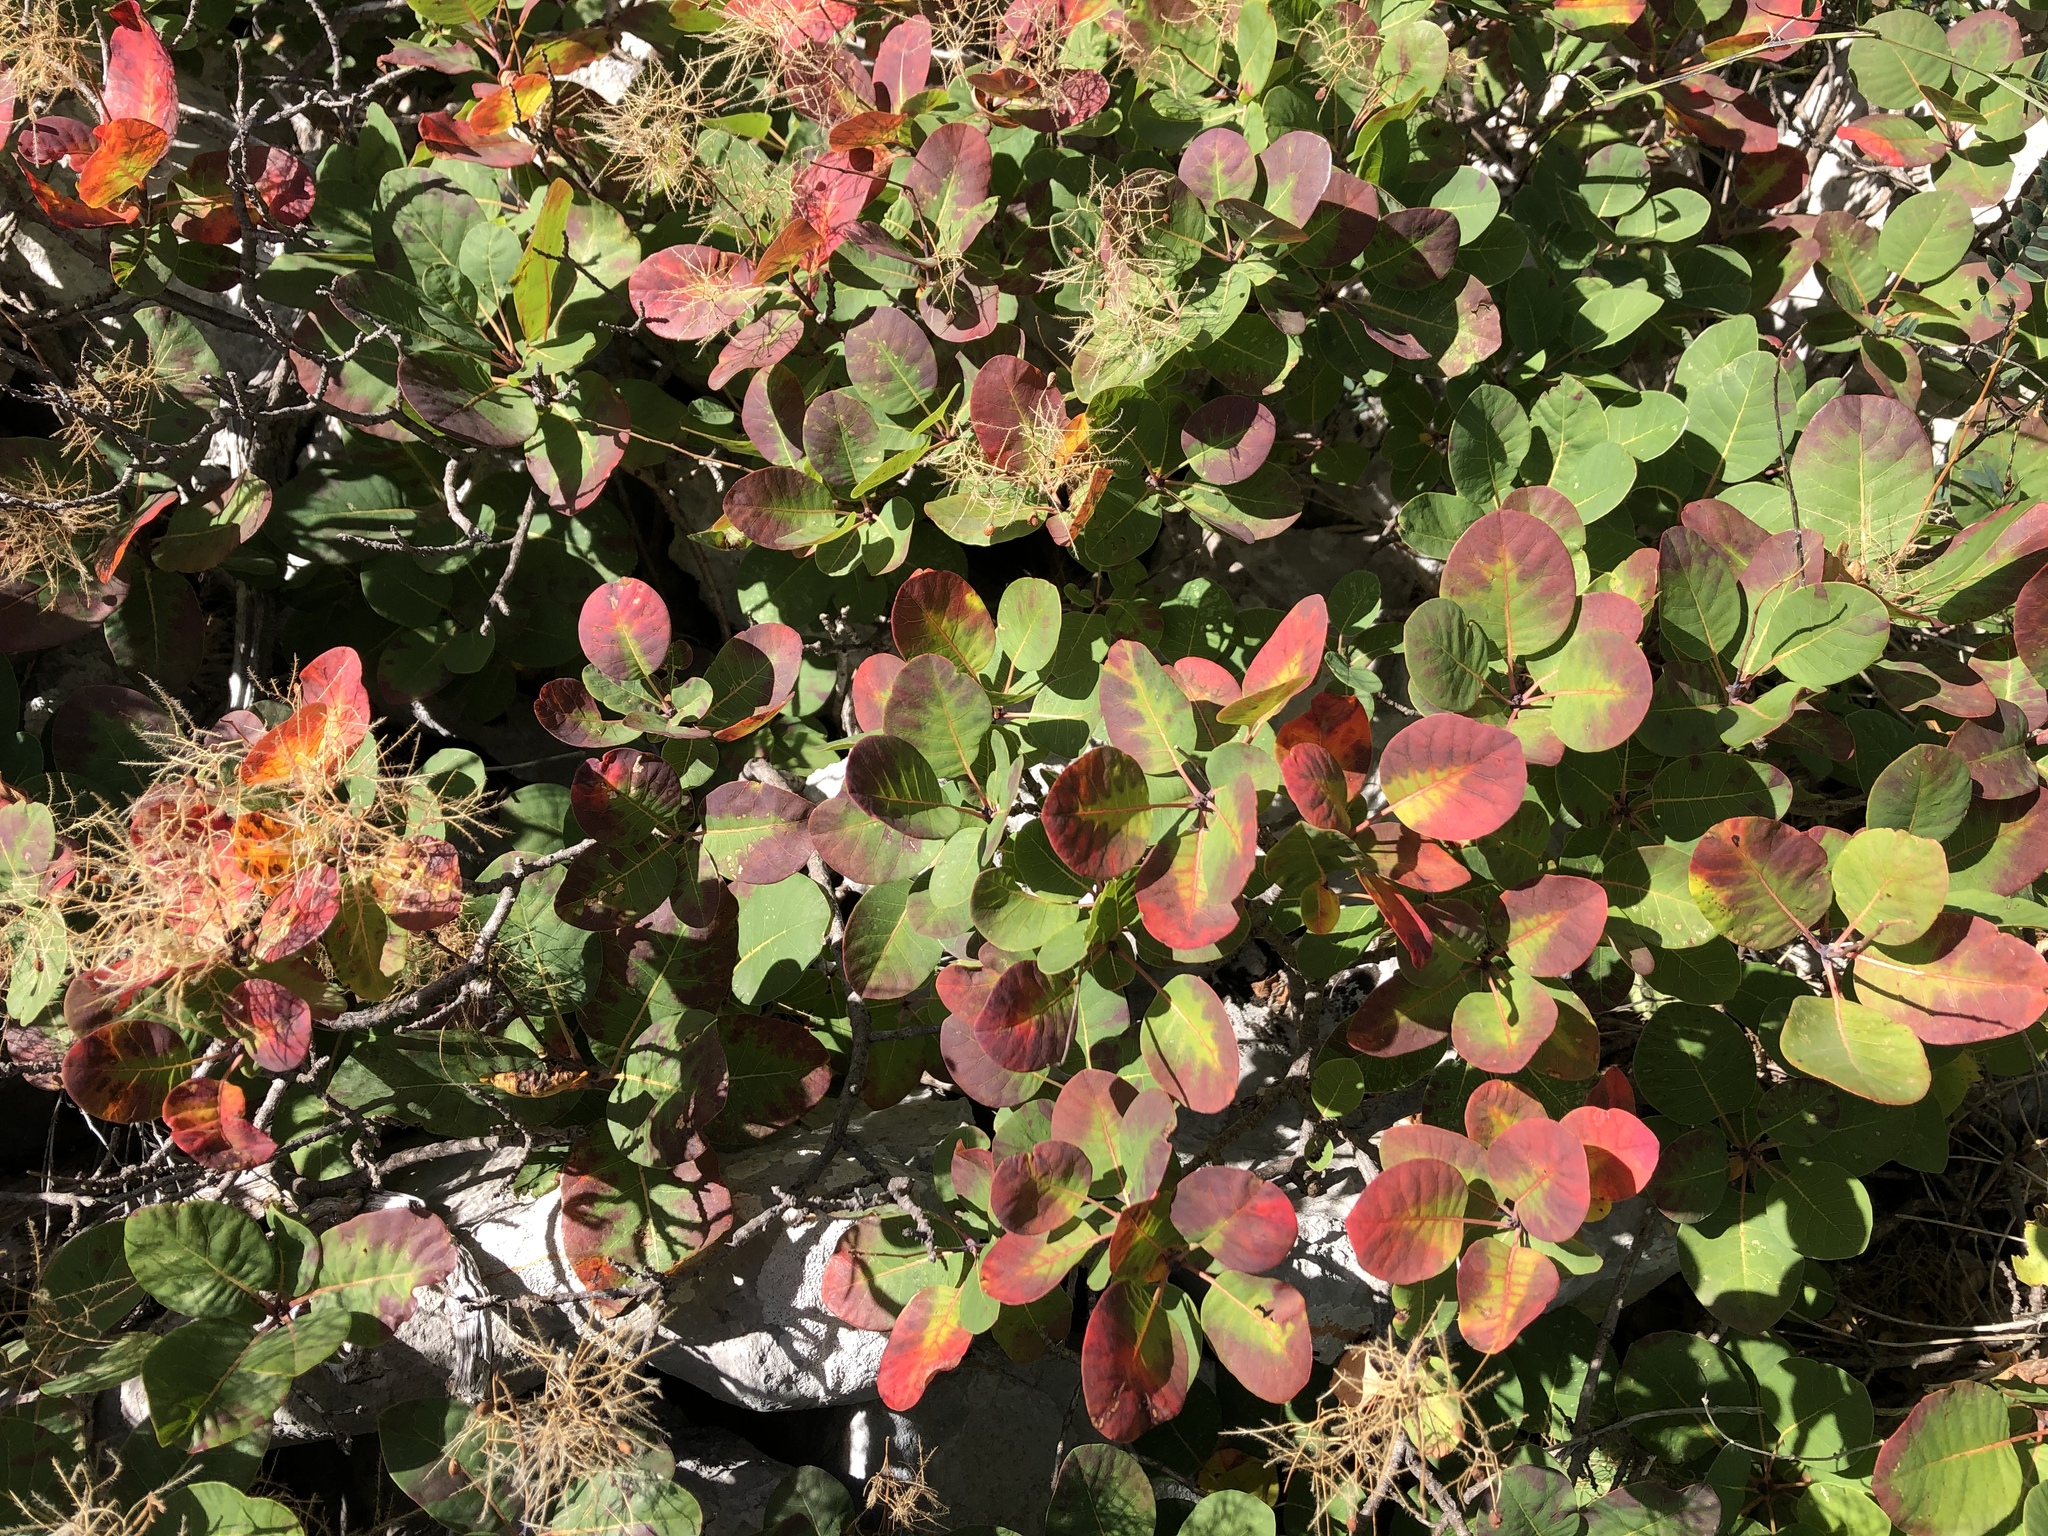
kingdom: Plantae
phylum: Tracheophyta
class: Magnoliopsida
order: Sapindales
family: Anacardiaceae
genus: Cotinus
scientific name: Cotinus coggygria
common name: Smoke-tree
